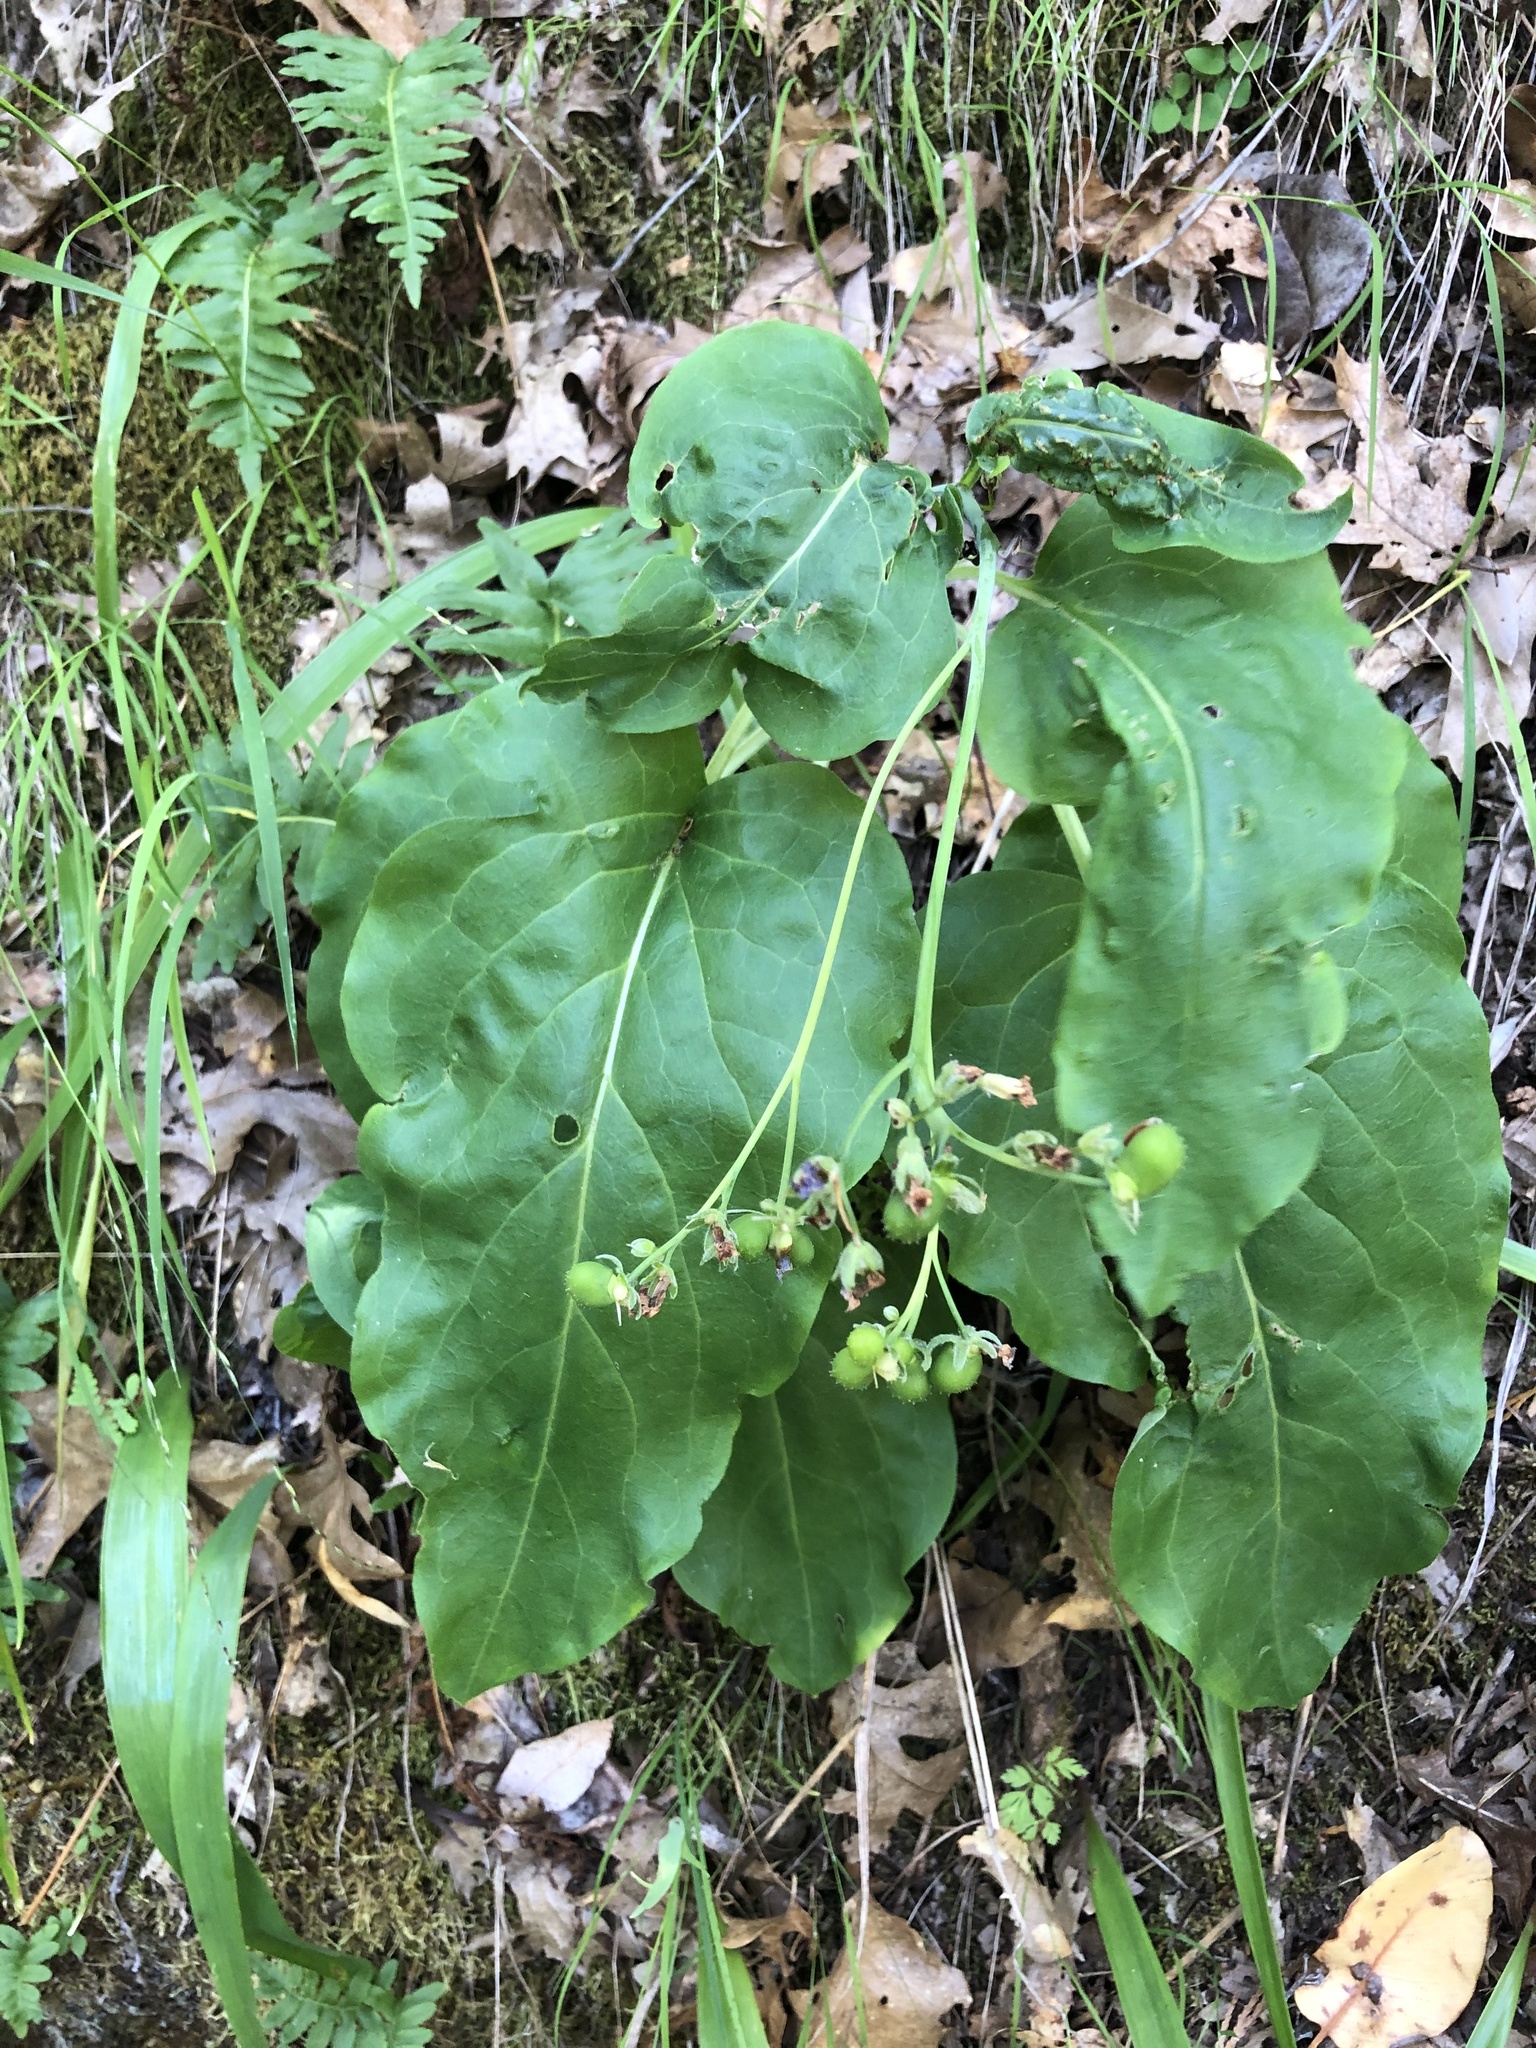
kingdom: Plantae
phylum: Tracheophyta
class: Magnoliopsida
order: Boraginales
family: Boraginaceae
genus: Adelinia
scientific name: Adelinia grande
